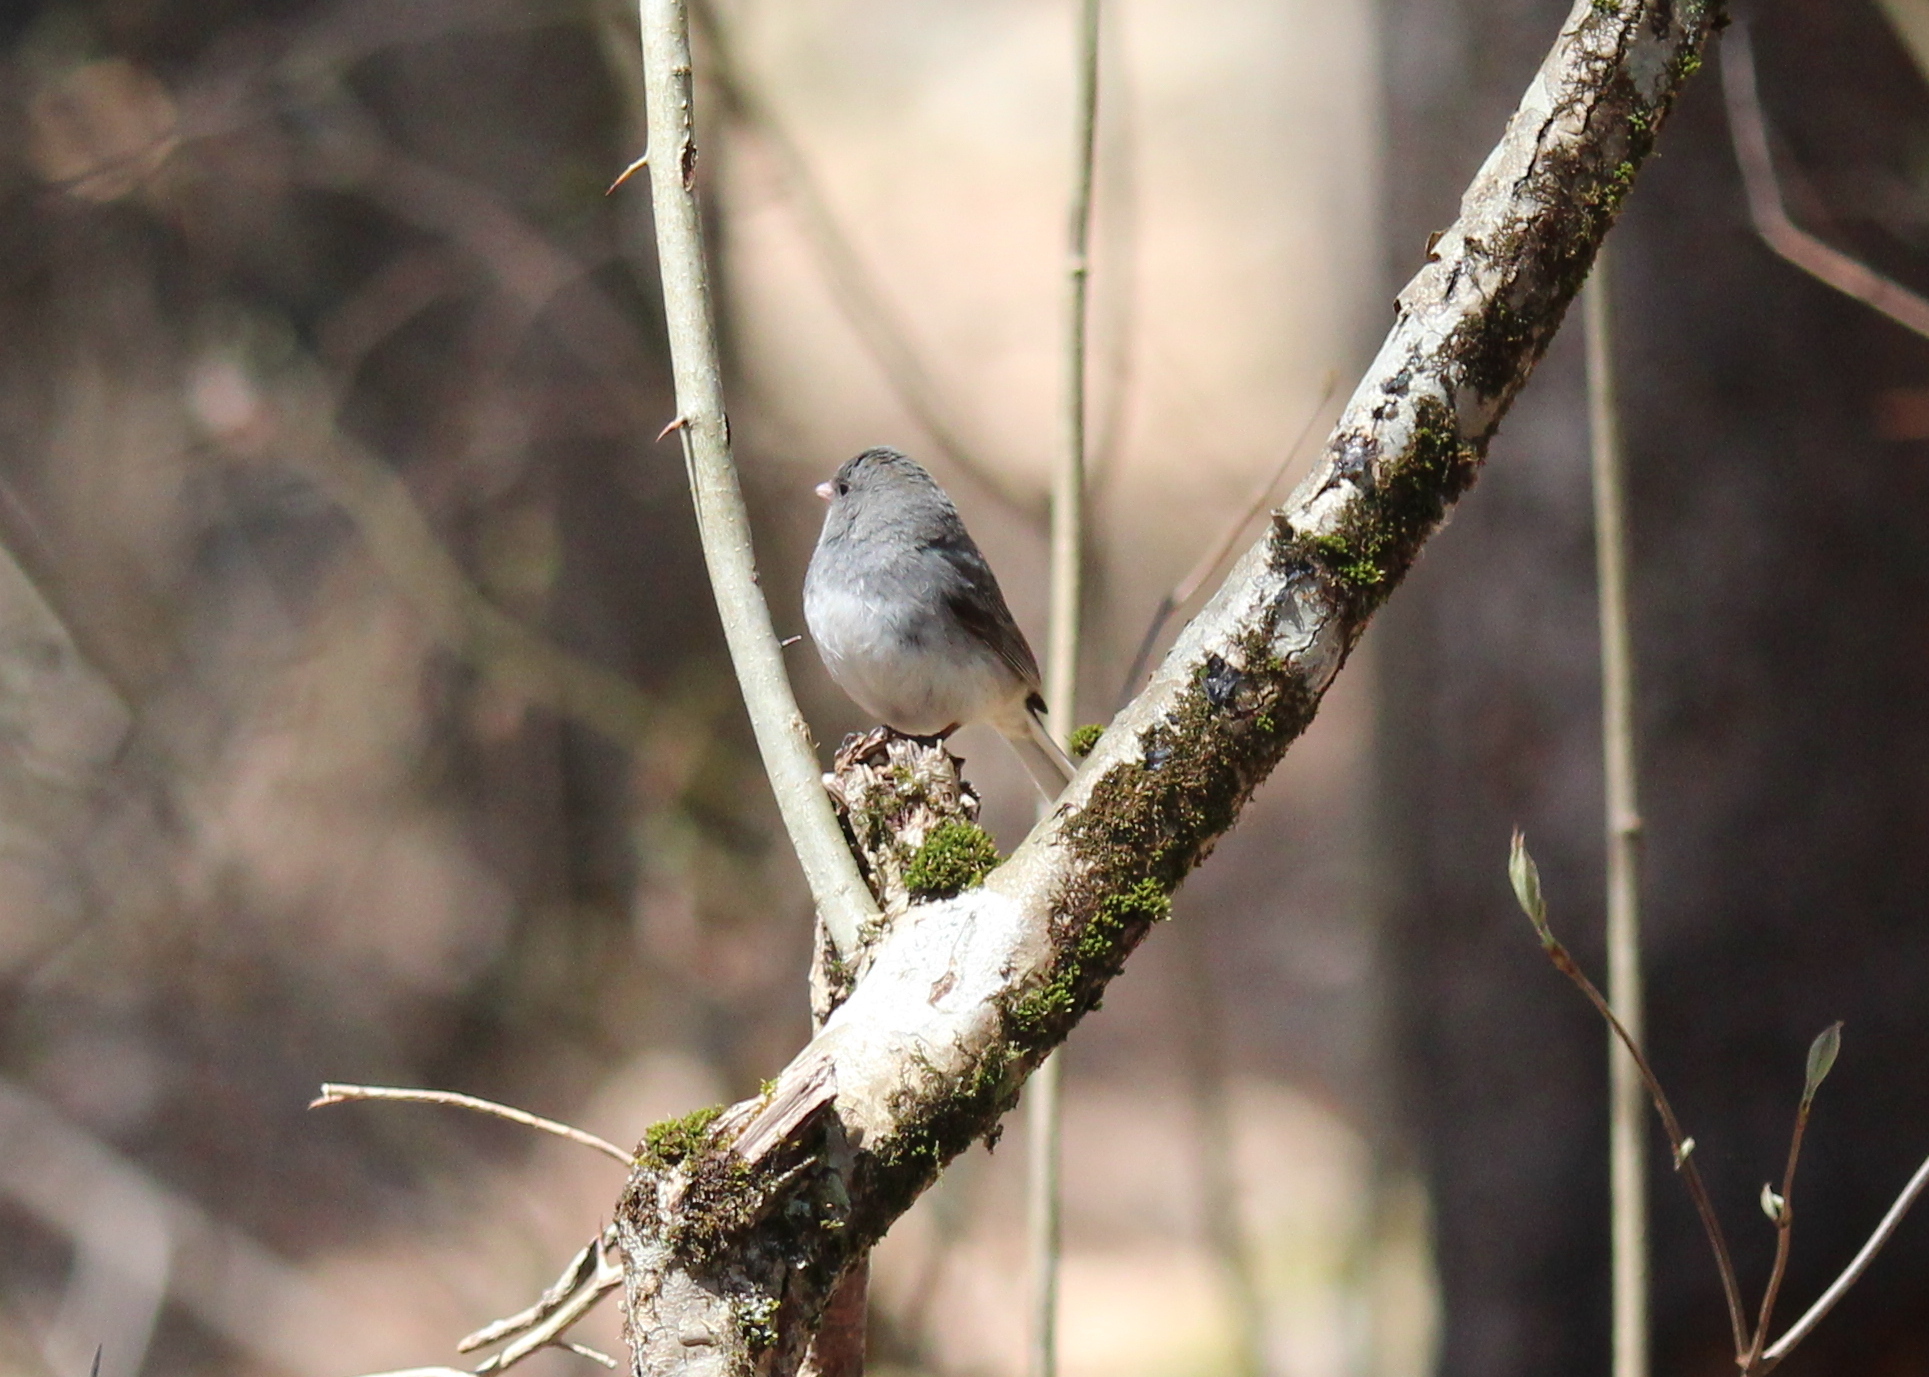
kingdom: Animalia
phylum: Chordata
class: Aves
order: Passeriformes
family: Passerellidae
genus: Junco
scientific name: Junco hyemalis
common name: Dark-eyed junco
